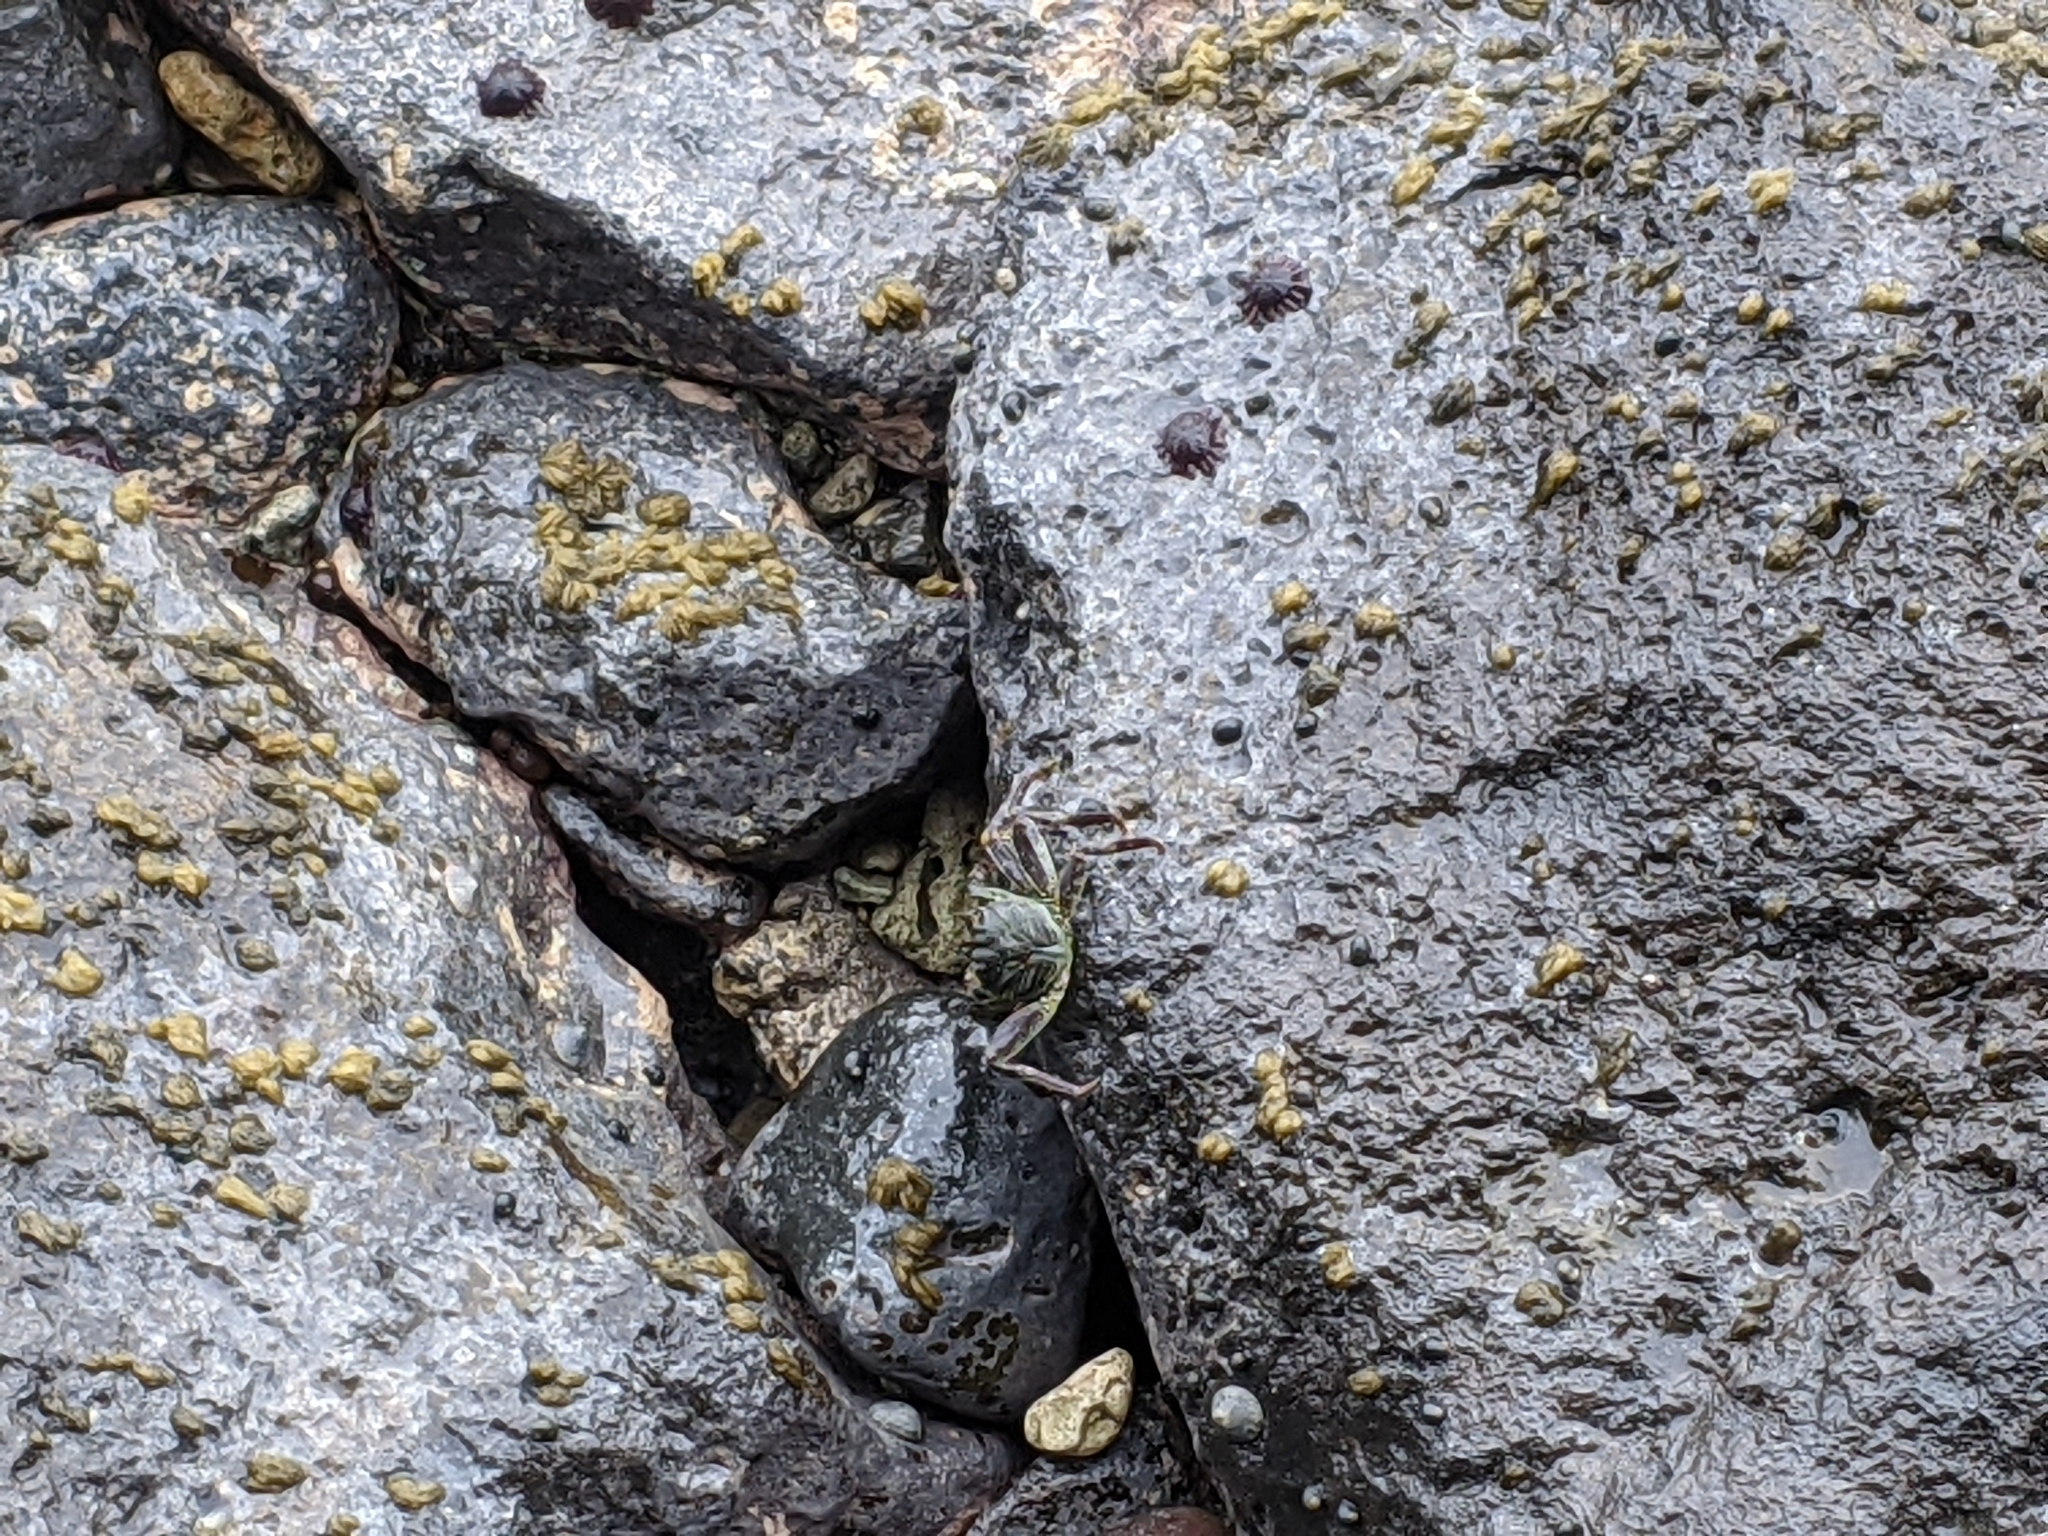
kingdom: Animalia
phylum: Arthropoda
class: Malacostraca
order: Decapoda
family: Grapsidae
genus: Grapsus
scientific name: Grapsus tenuicrustatus
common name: Natal lightfoot crab
